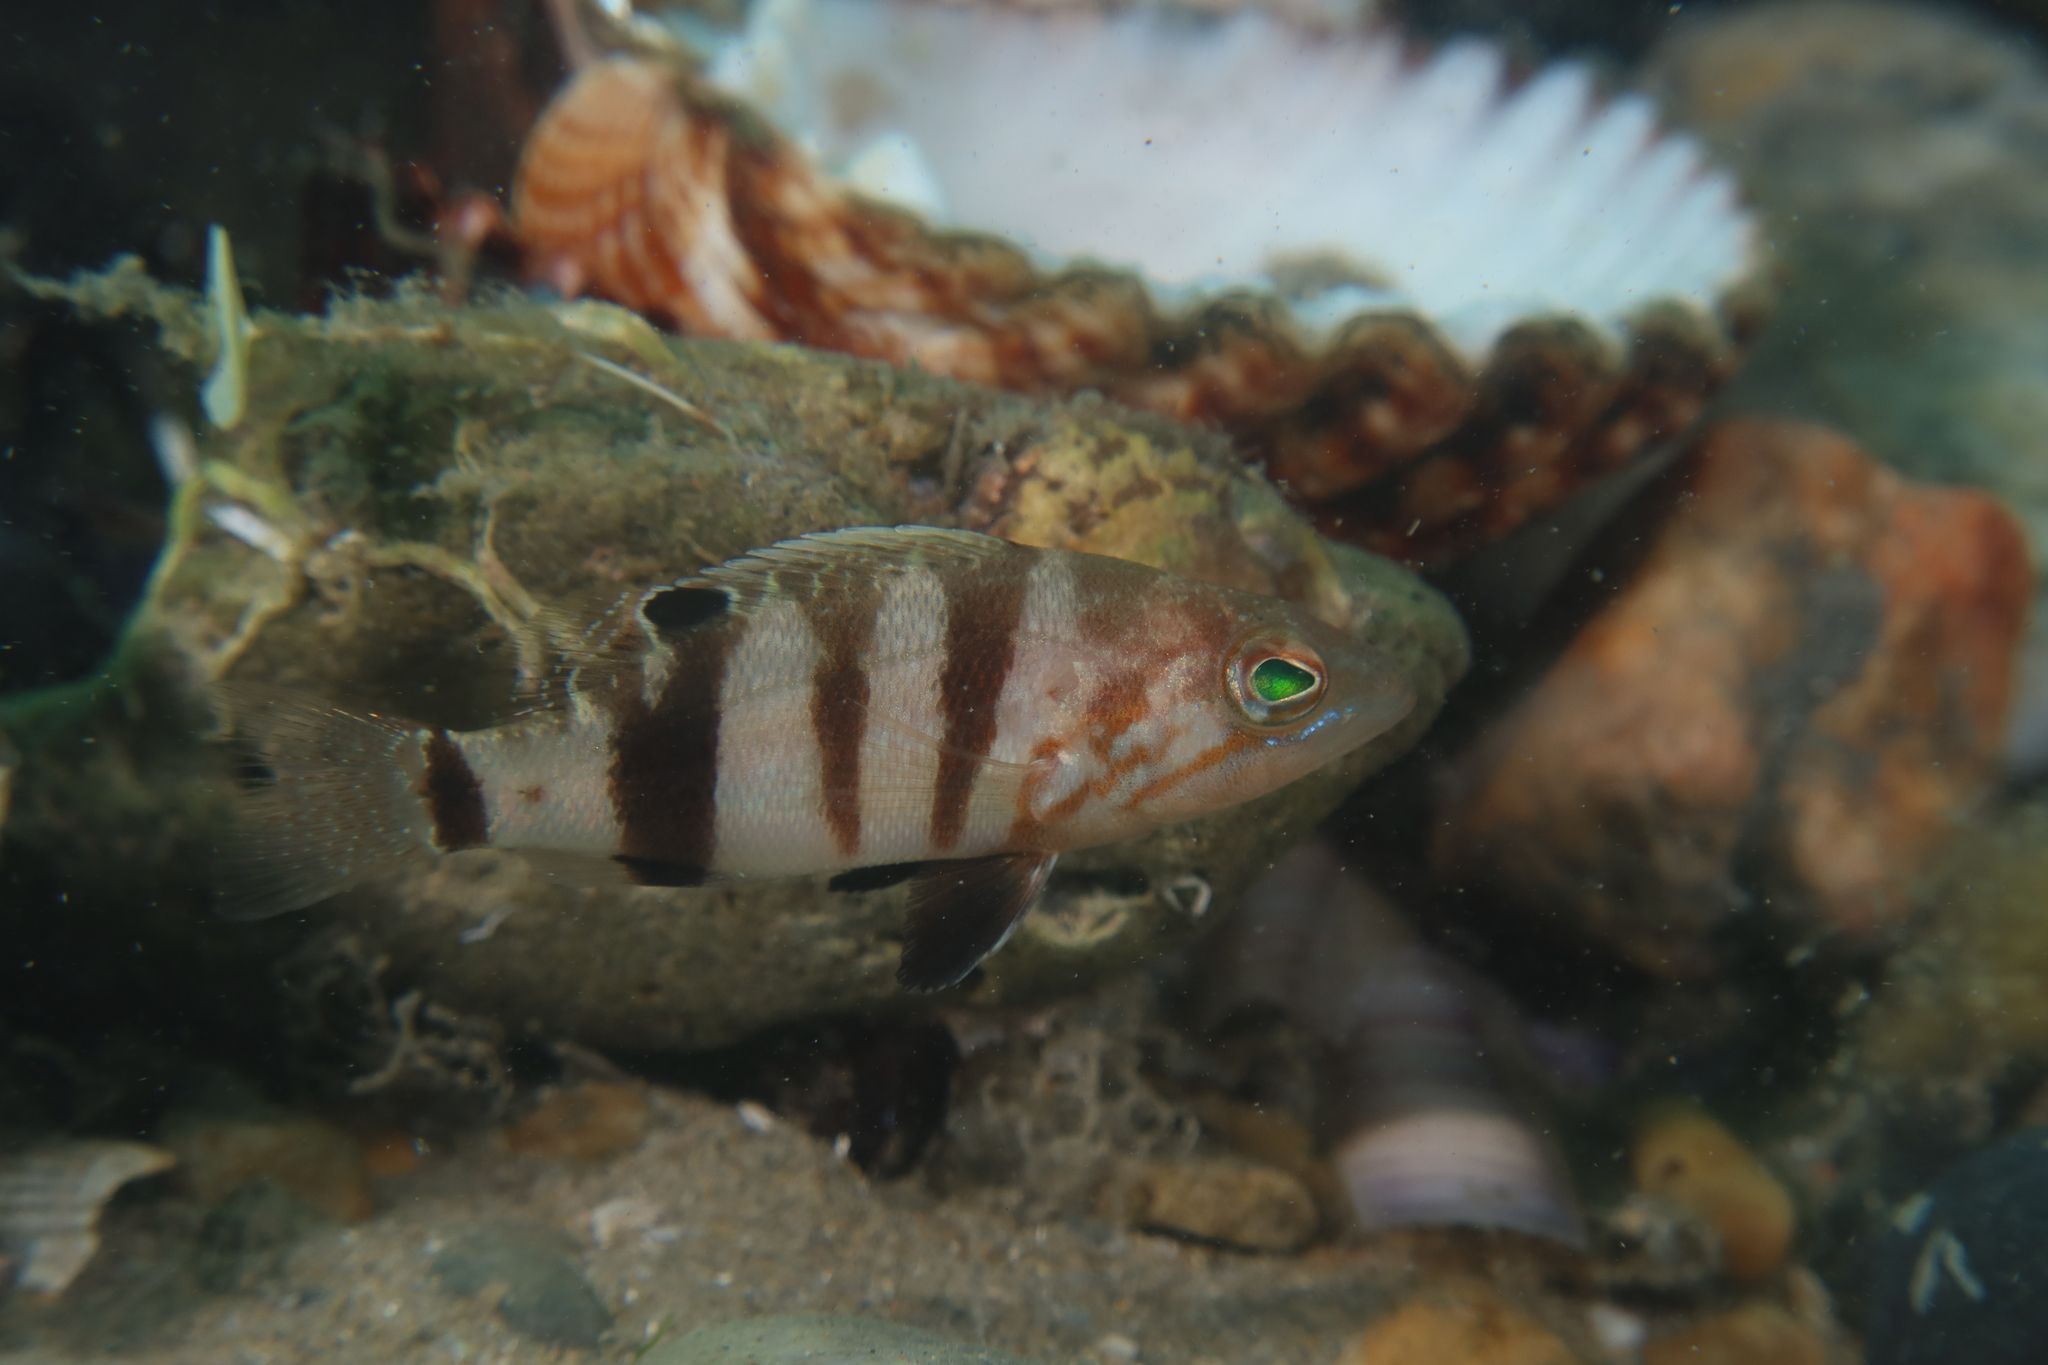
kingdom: Animalia
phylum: Chordata
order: Perciformes
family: Serranidae
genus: Serranus
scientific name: Serranus hepatus
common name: Brown comber
